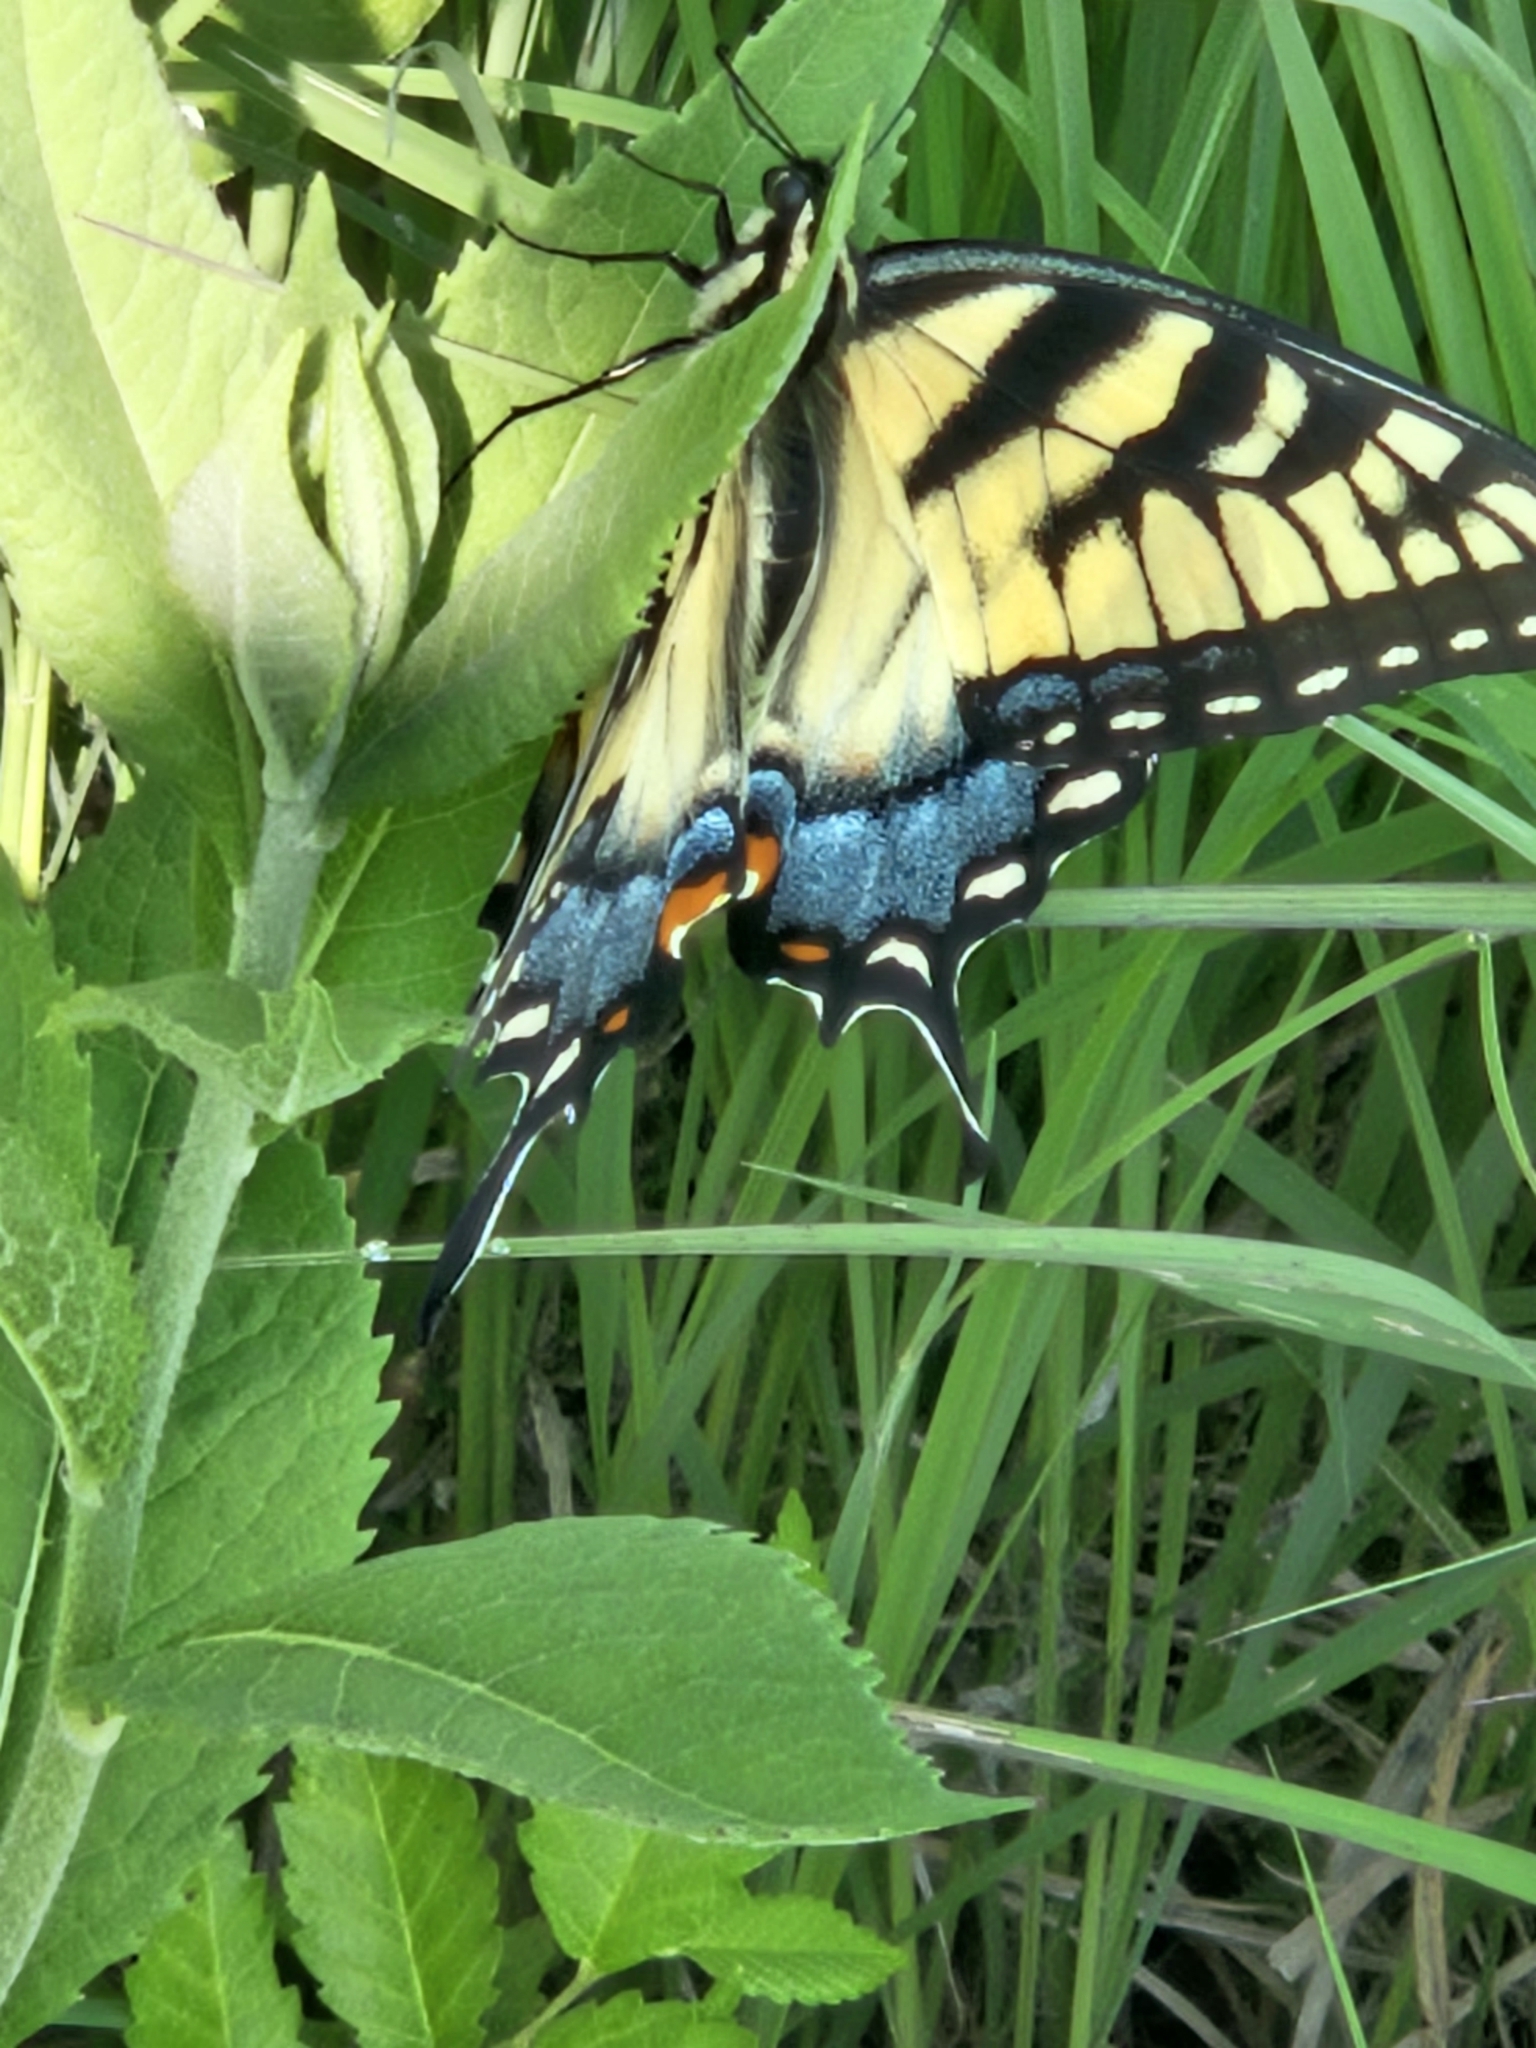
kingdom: Animalia
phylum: Arthropoda
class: Insecta
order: Lepidoptera
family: Papilionidae
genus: Papilio
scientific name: Papilio glaucus
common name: Tiger swallowtail
